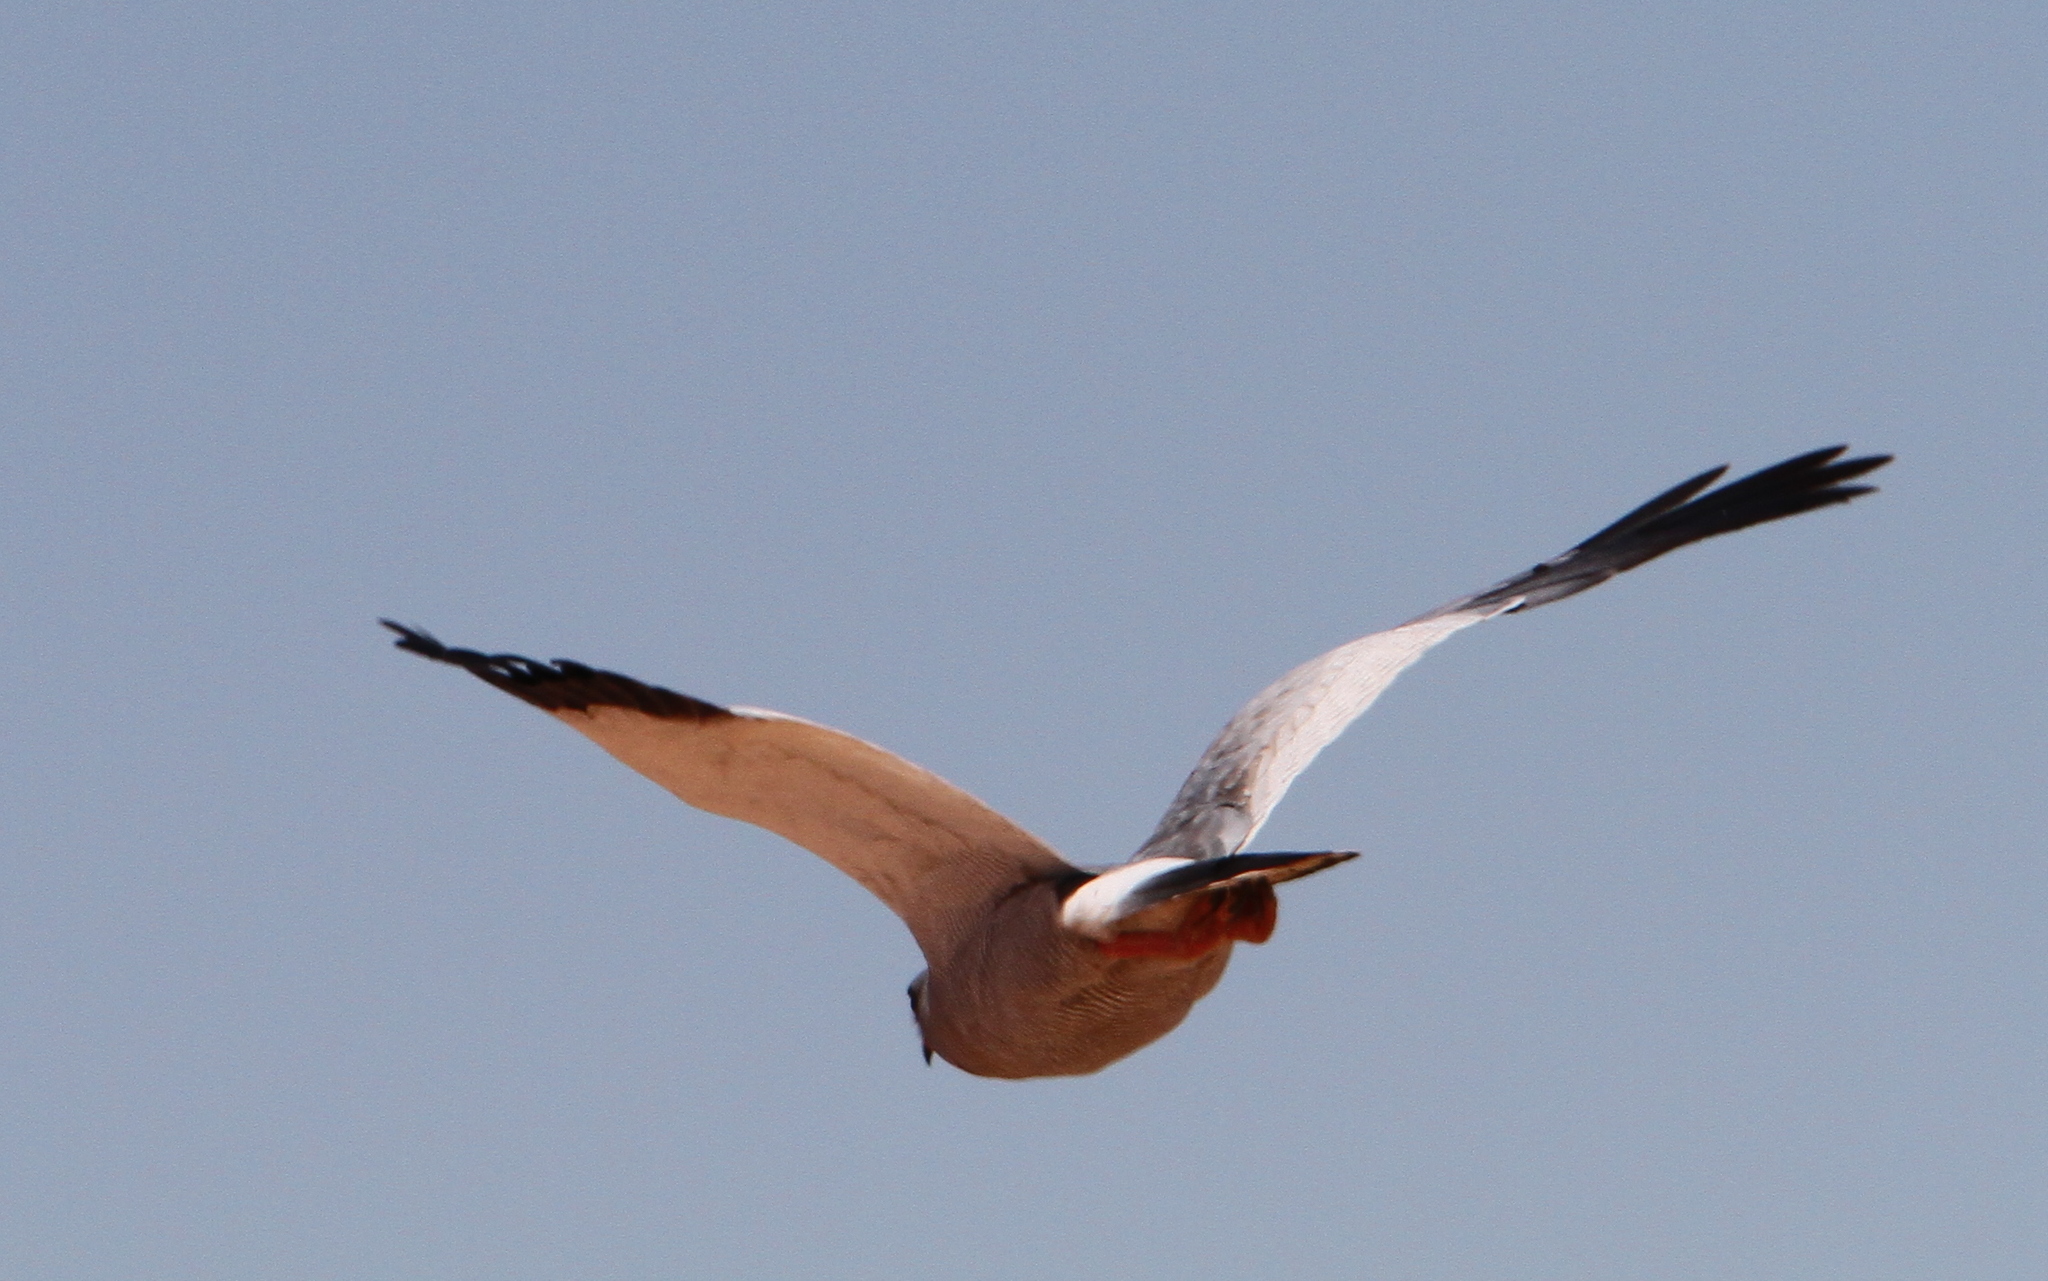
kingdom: Animalia
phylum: Chordata
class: Aves
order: Accipitriformes
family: Accipitridae
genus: Melierax
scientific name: Melierax canorus
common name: Pale chanting-goshawk
